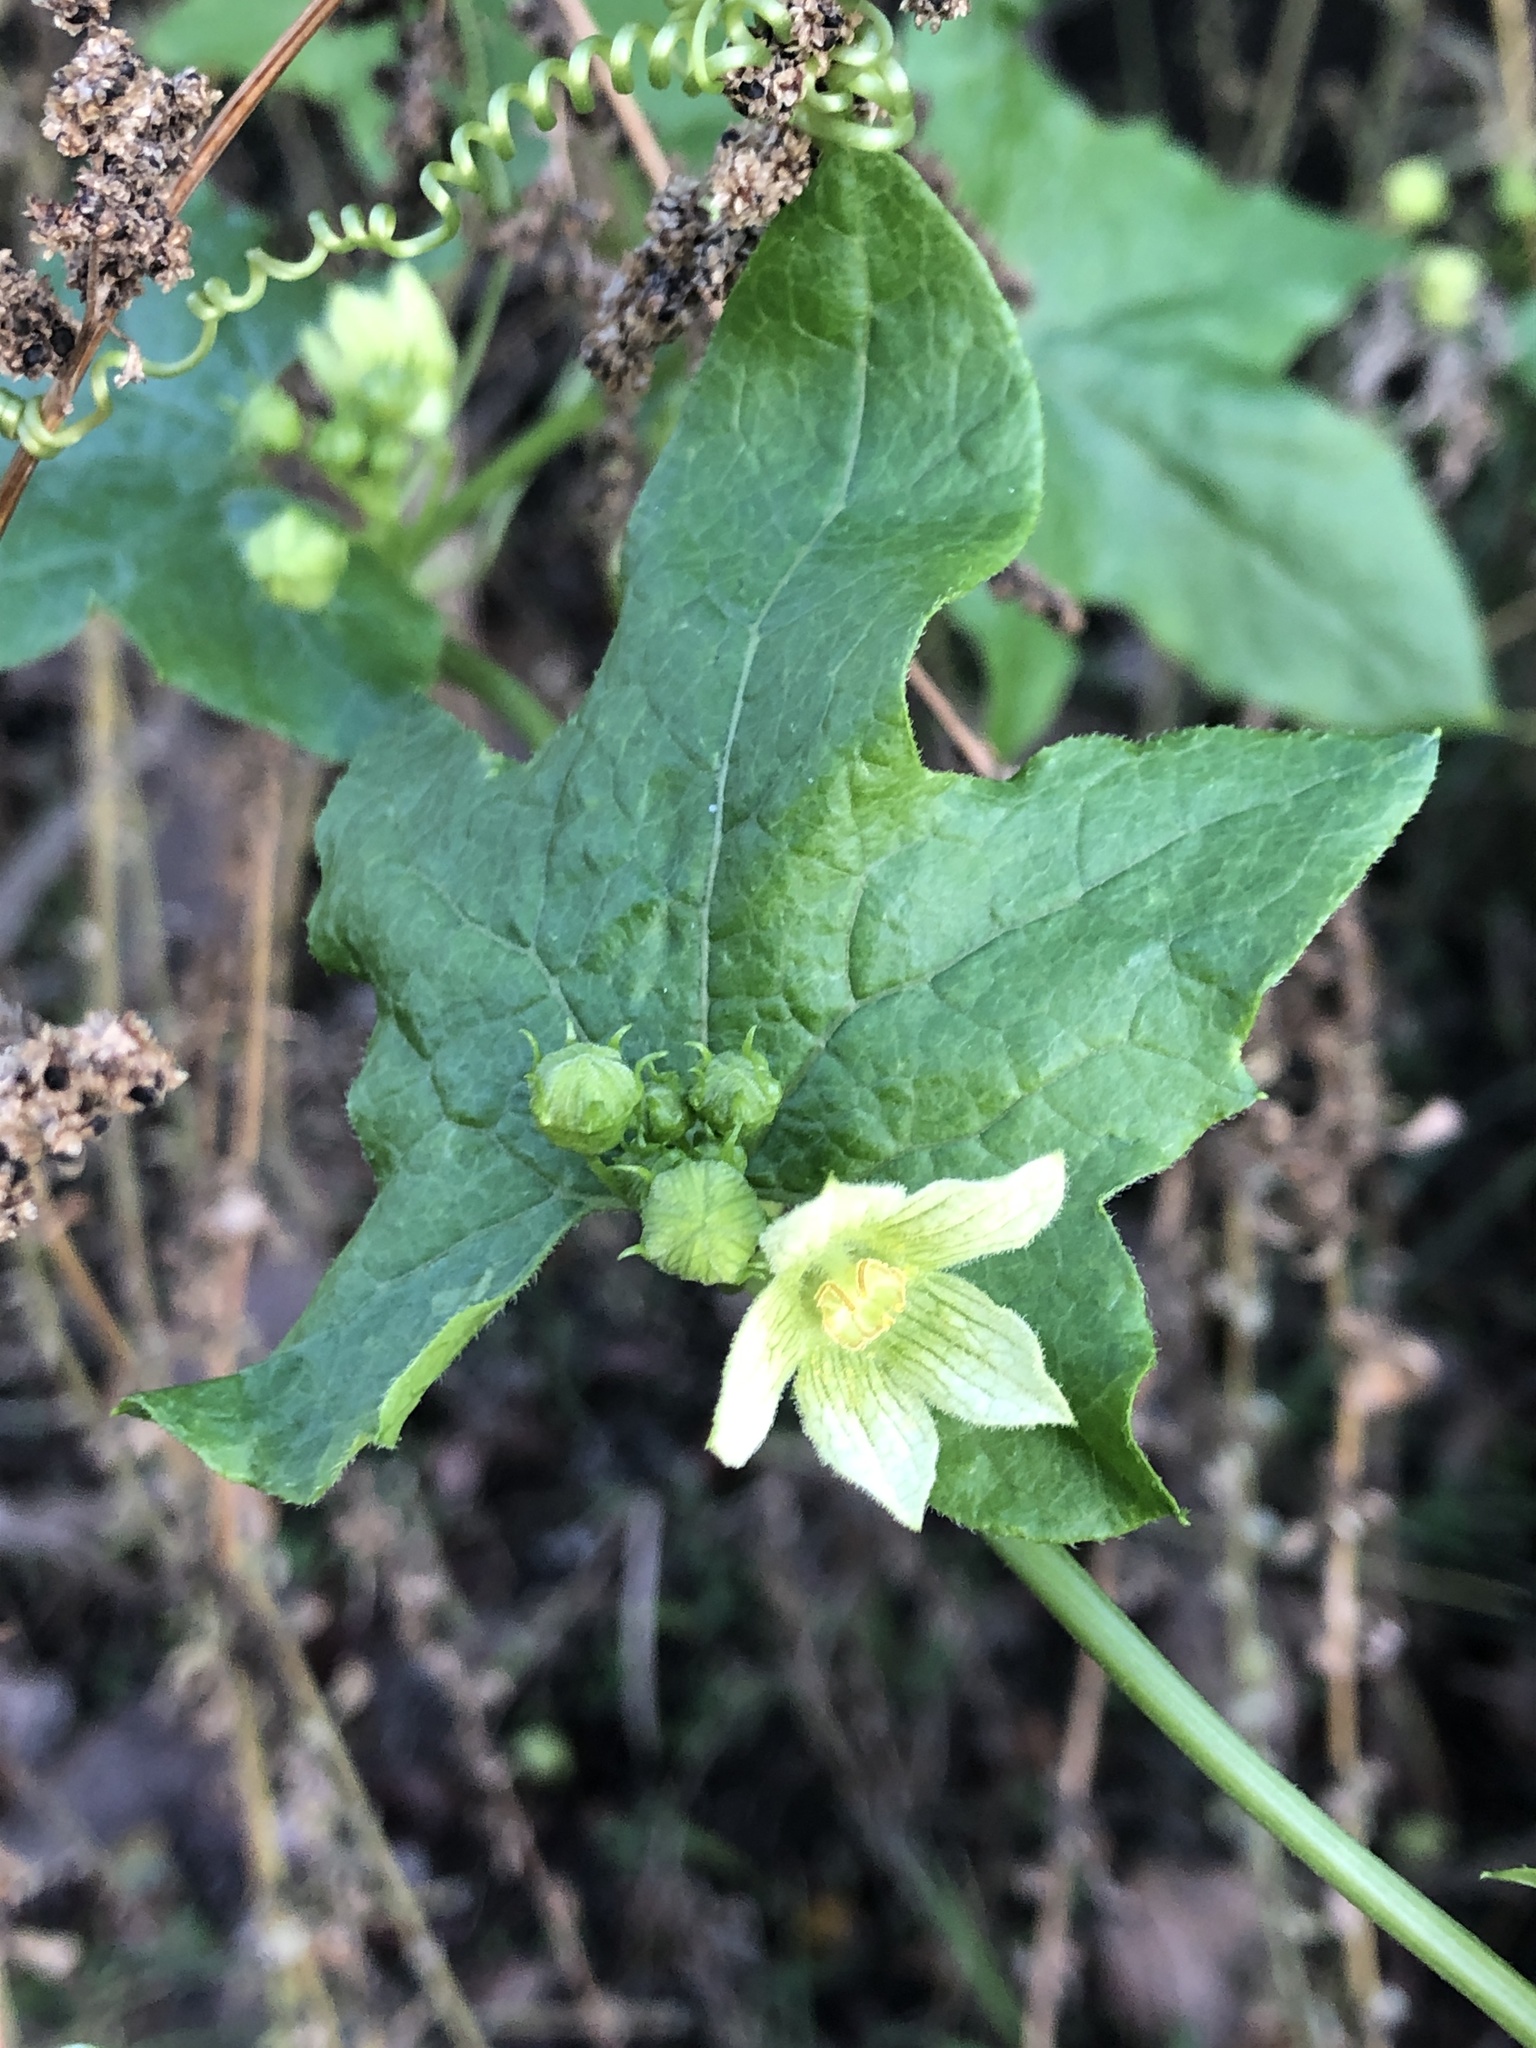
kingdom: Plantae
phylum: Tracheophyta
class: Magnoliopsida
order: Cucurbitales
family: Cucurbitaceae
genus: Bryonia
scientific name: Bryonia cretica
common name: Cretan bryony
